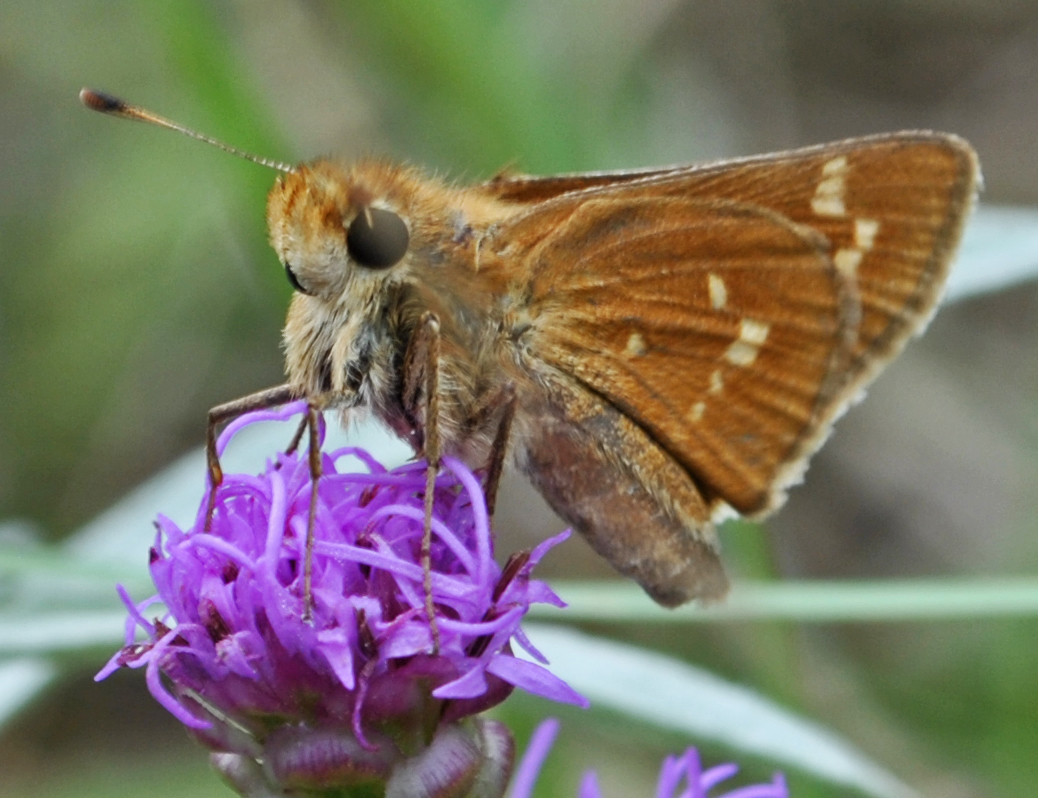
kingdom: Animalia
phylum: Arthropoda
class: Insecta
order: Lepidoptera
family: Hesperiidae
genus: Hesperia
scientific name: Hesperia leonardus
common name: Leonard's skipper
